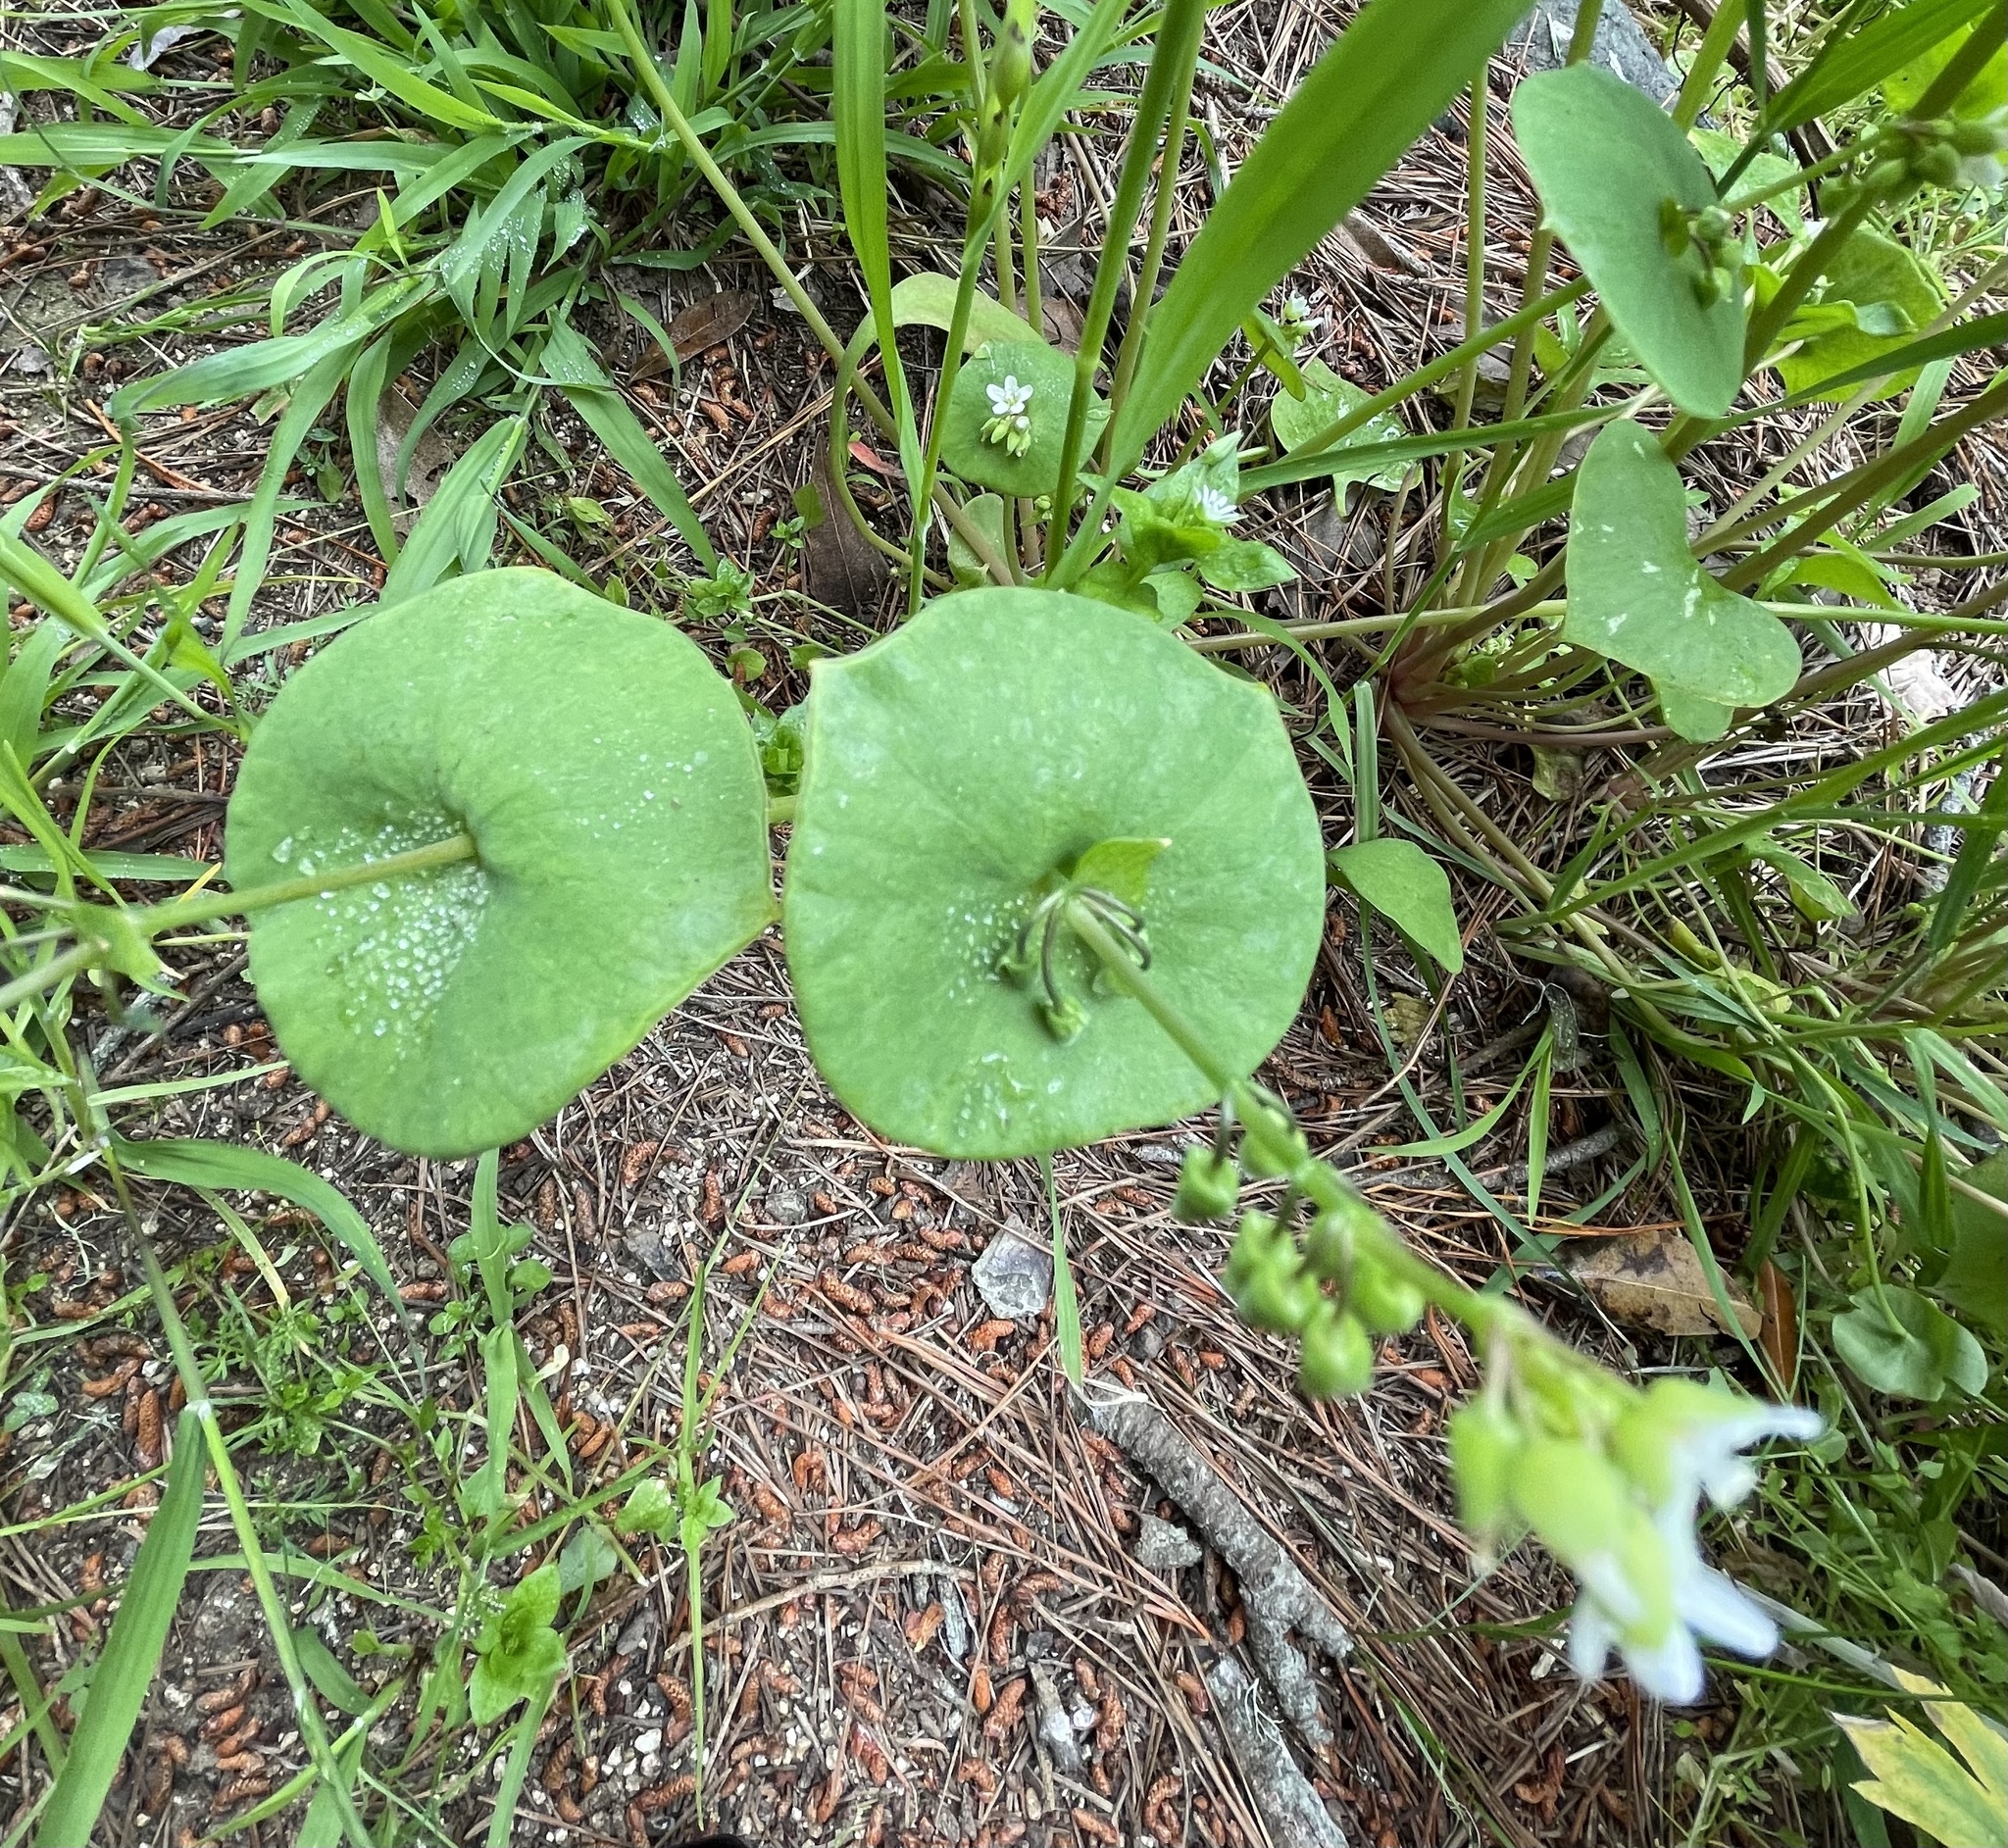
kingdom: Plantae
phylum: Tracheophyta
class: Magnoliopsida
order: Caryophyllales
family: Montiaceae
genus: Claytonia
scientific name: Claytonia perfoliata
